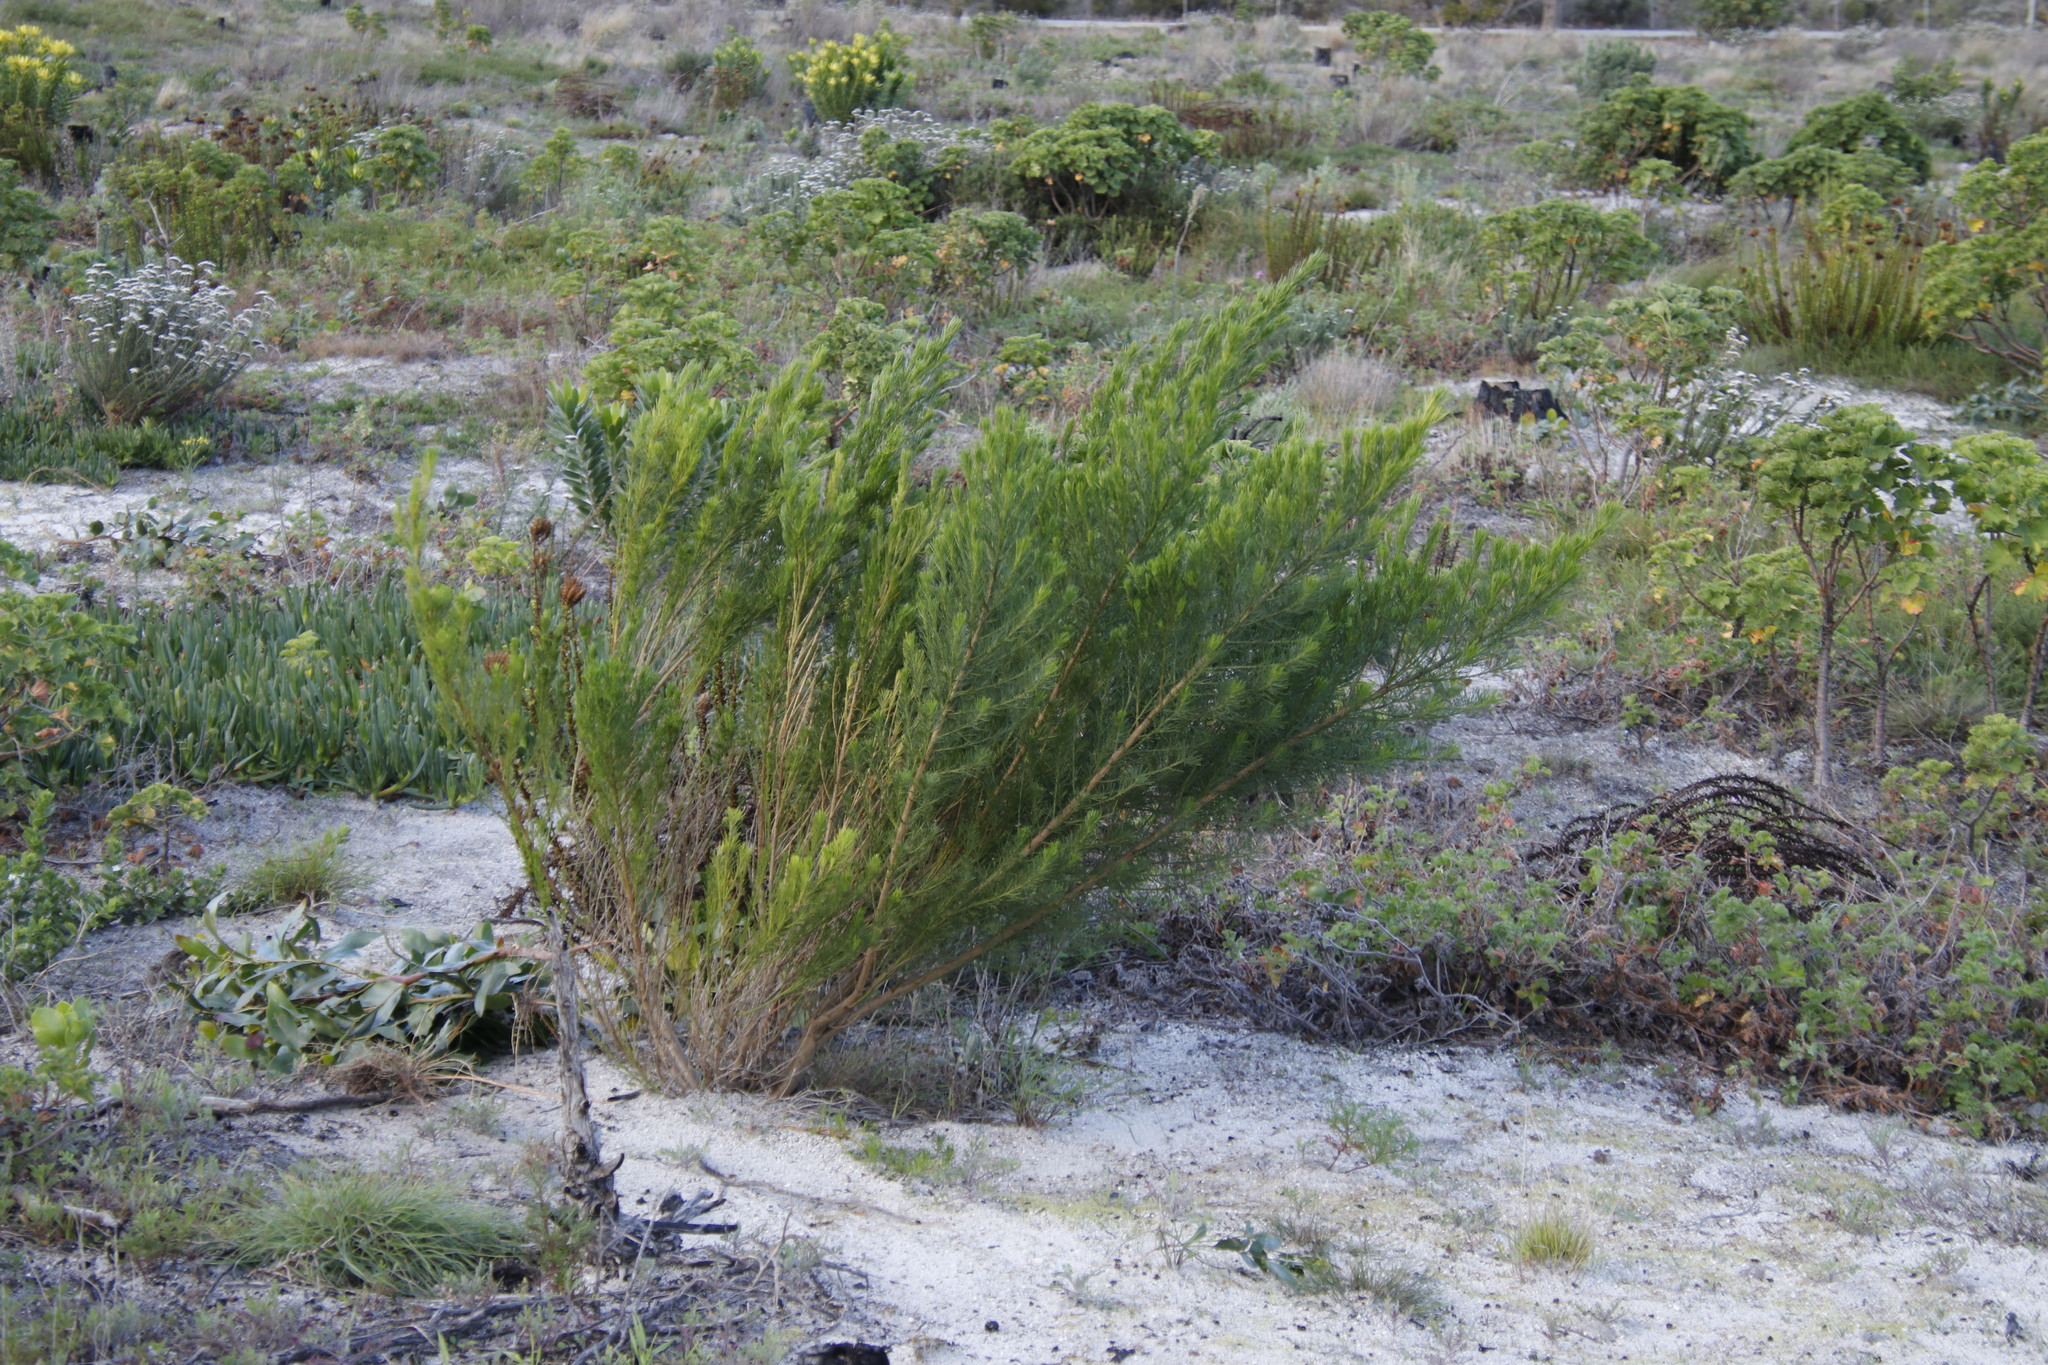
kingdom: Plantae
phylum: Tracheophyta
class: Magnoliopsida
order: Fabales
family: Fabaceae
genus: Psoralea
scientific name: Psoralea pinnata
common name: African scurfpea
